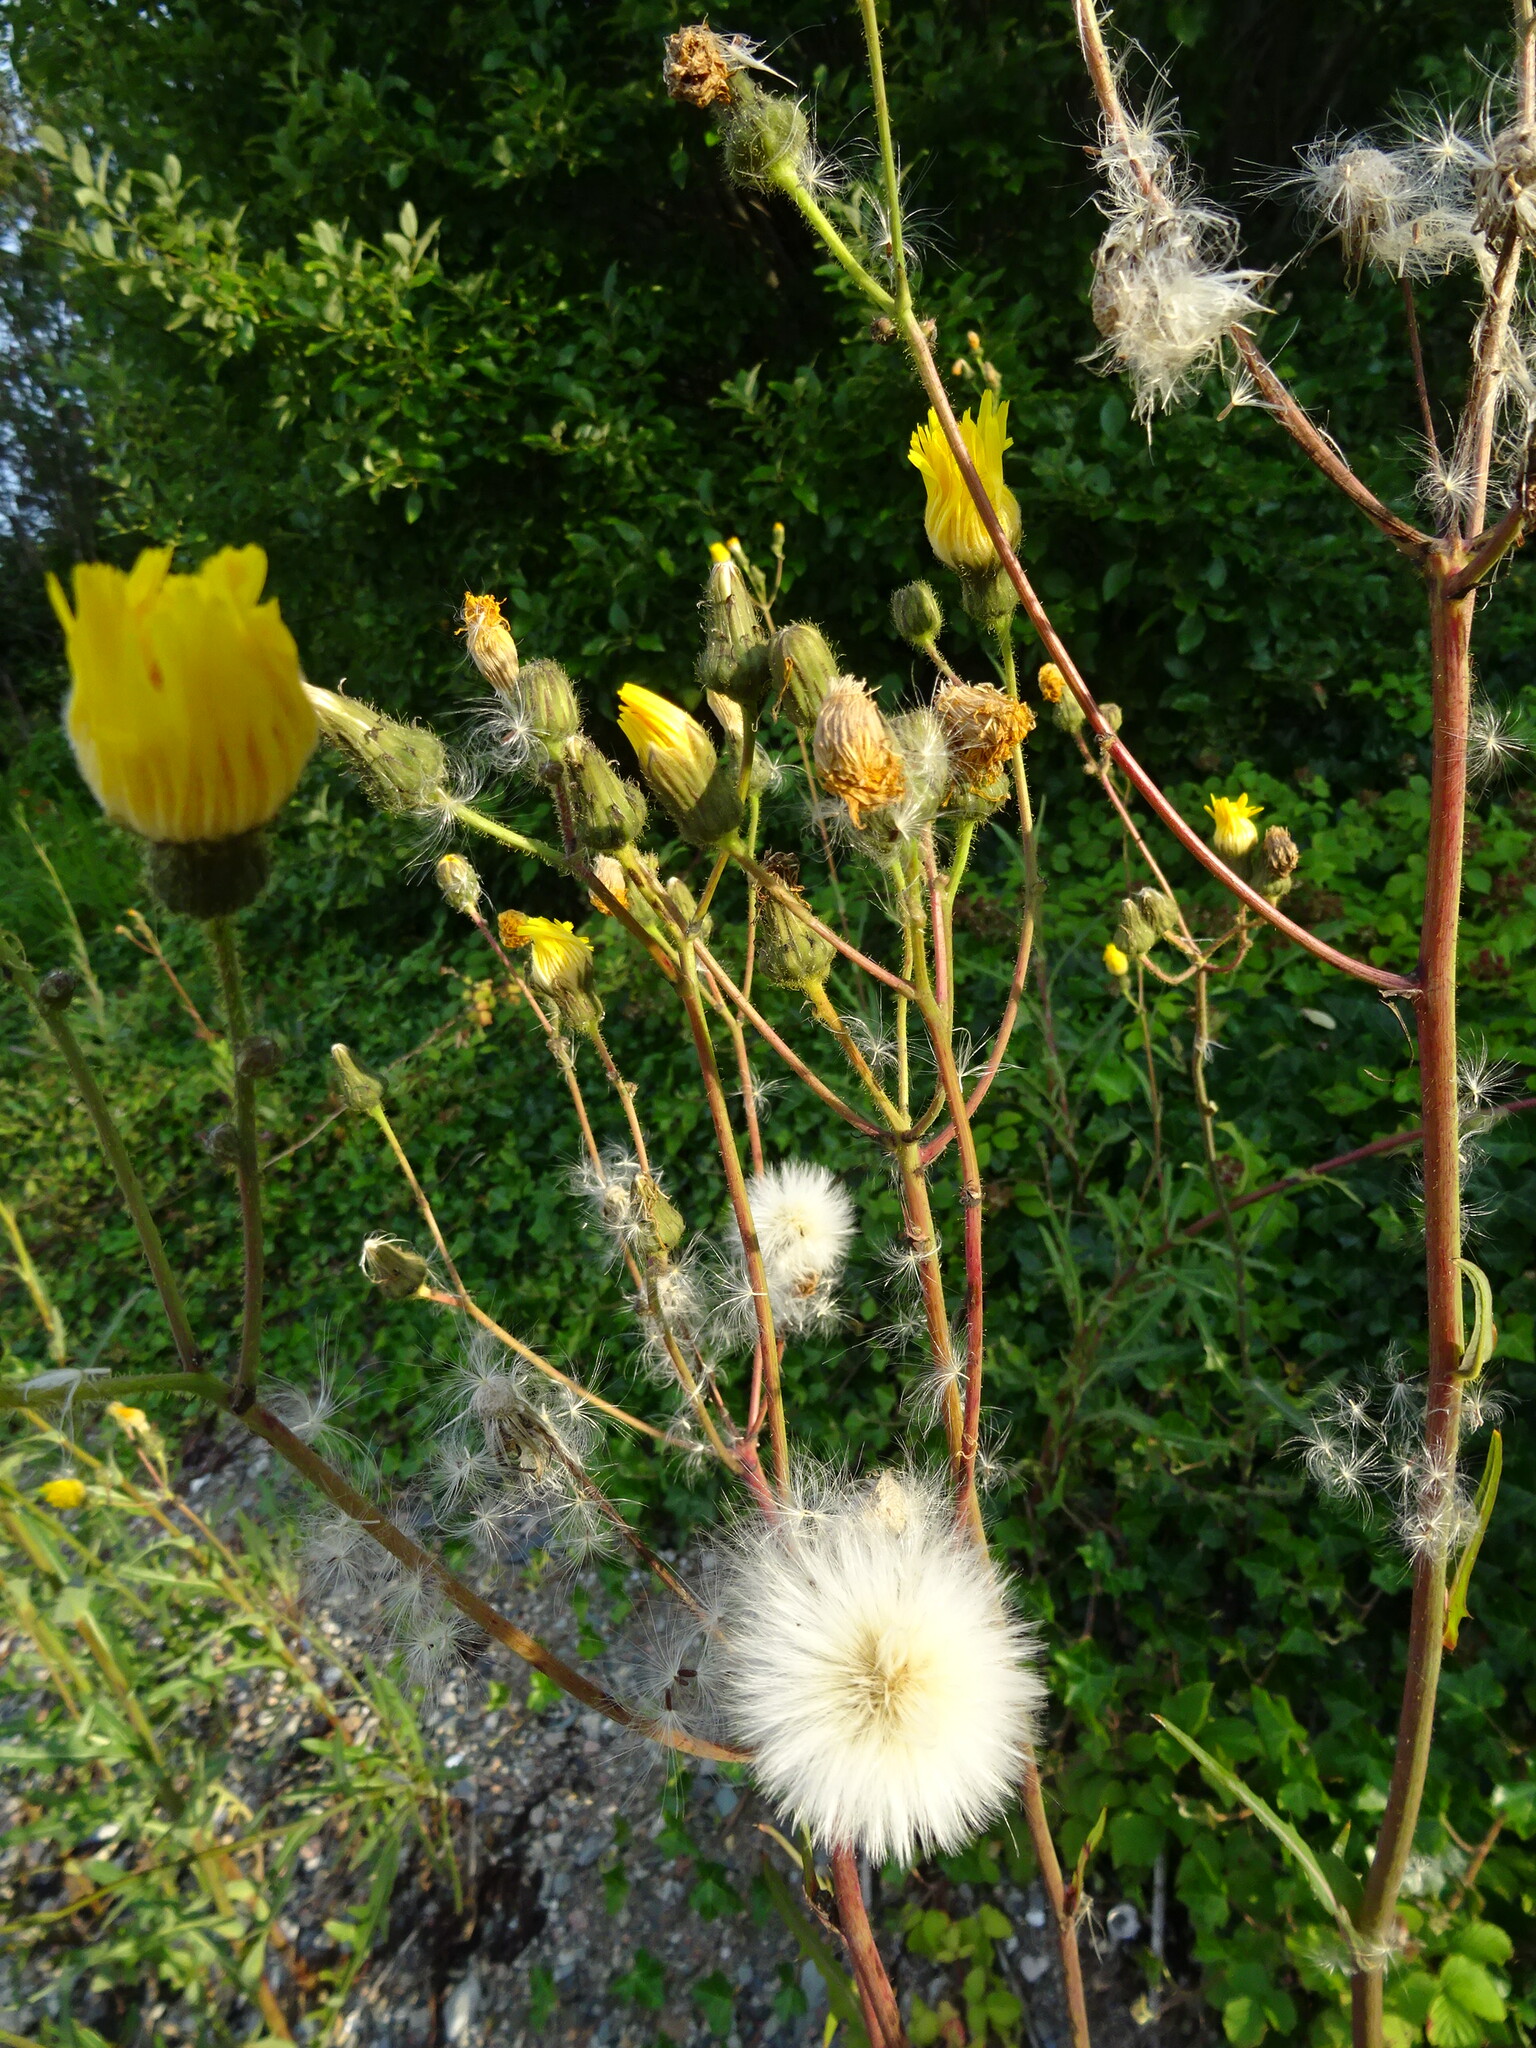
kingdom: Plantae
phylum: Tracheophyta
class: Magnoliopsida
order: Asterales
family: Asteraceae
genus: Sonchus
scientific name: Sonchus arvensis
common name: Perennial sow-thistle
